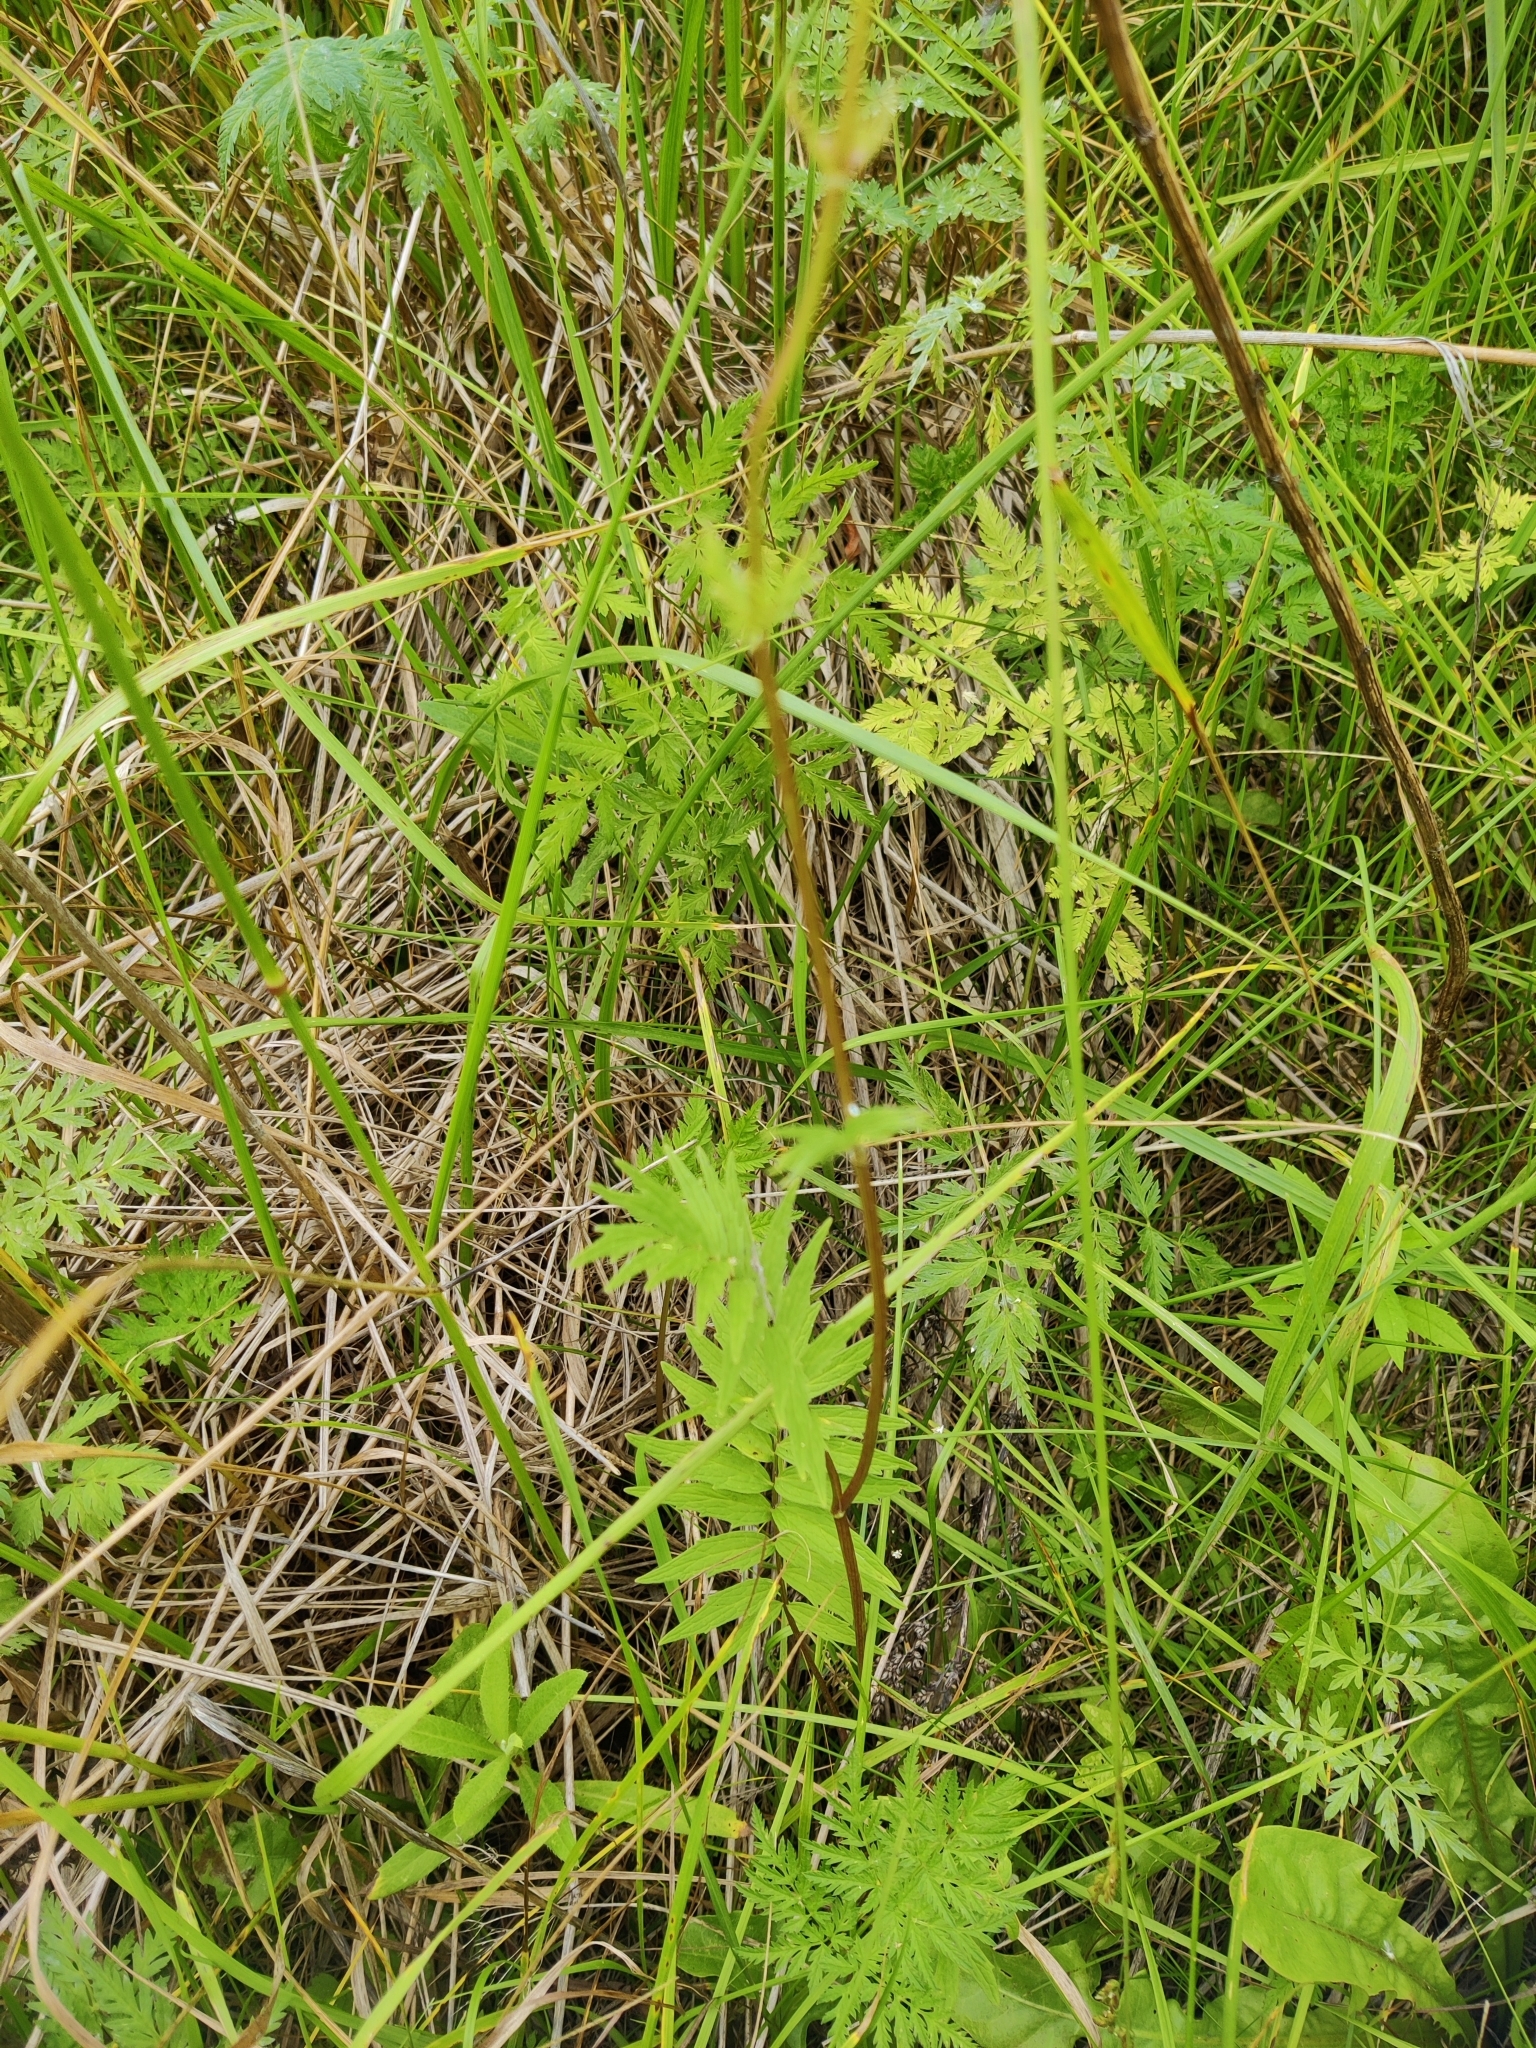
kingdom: Plantae
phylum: Tracheophyta
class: Magnoliopsida
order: Dipsacales
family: Caprifoliaceae
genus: Valeriana
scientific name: Valeriana officinalis
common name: Common valerian
